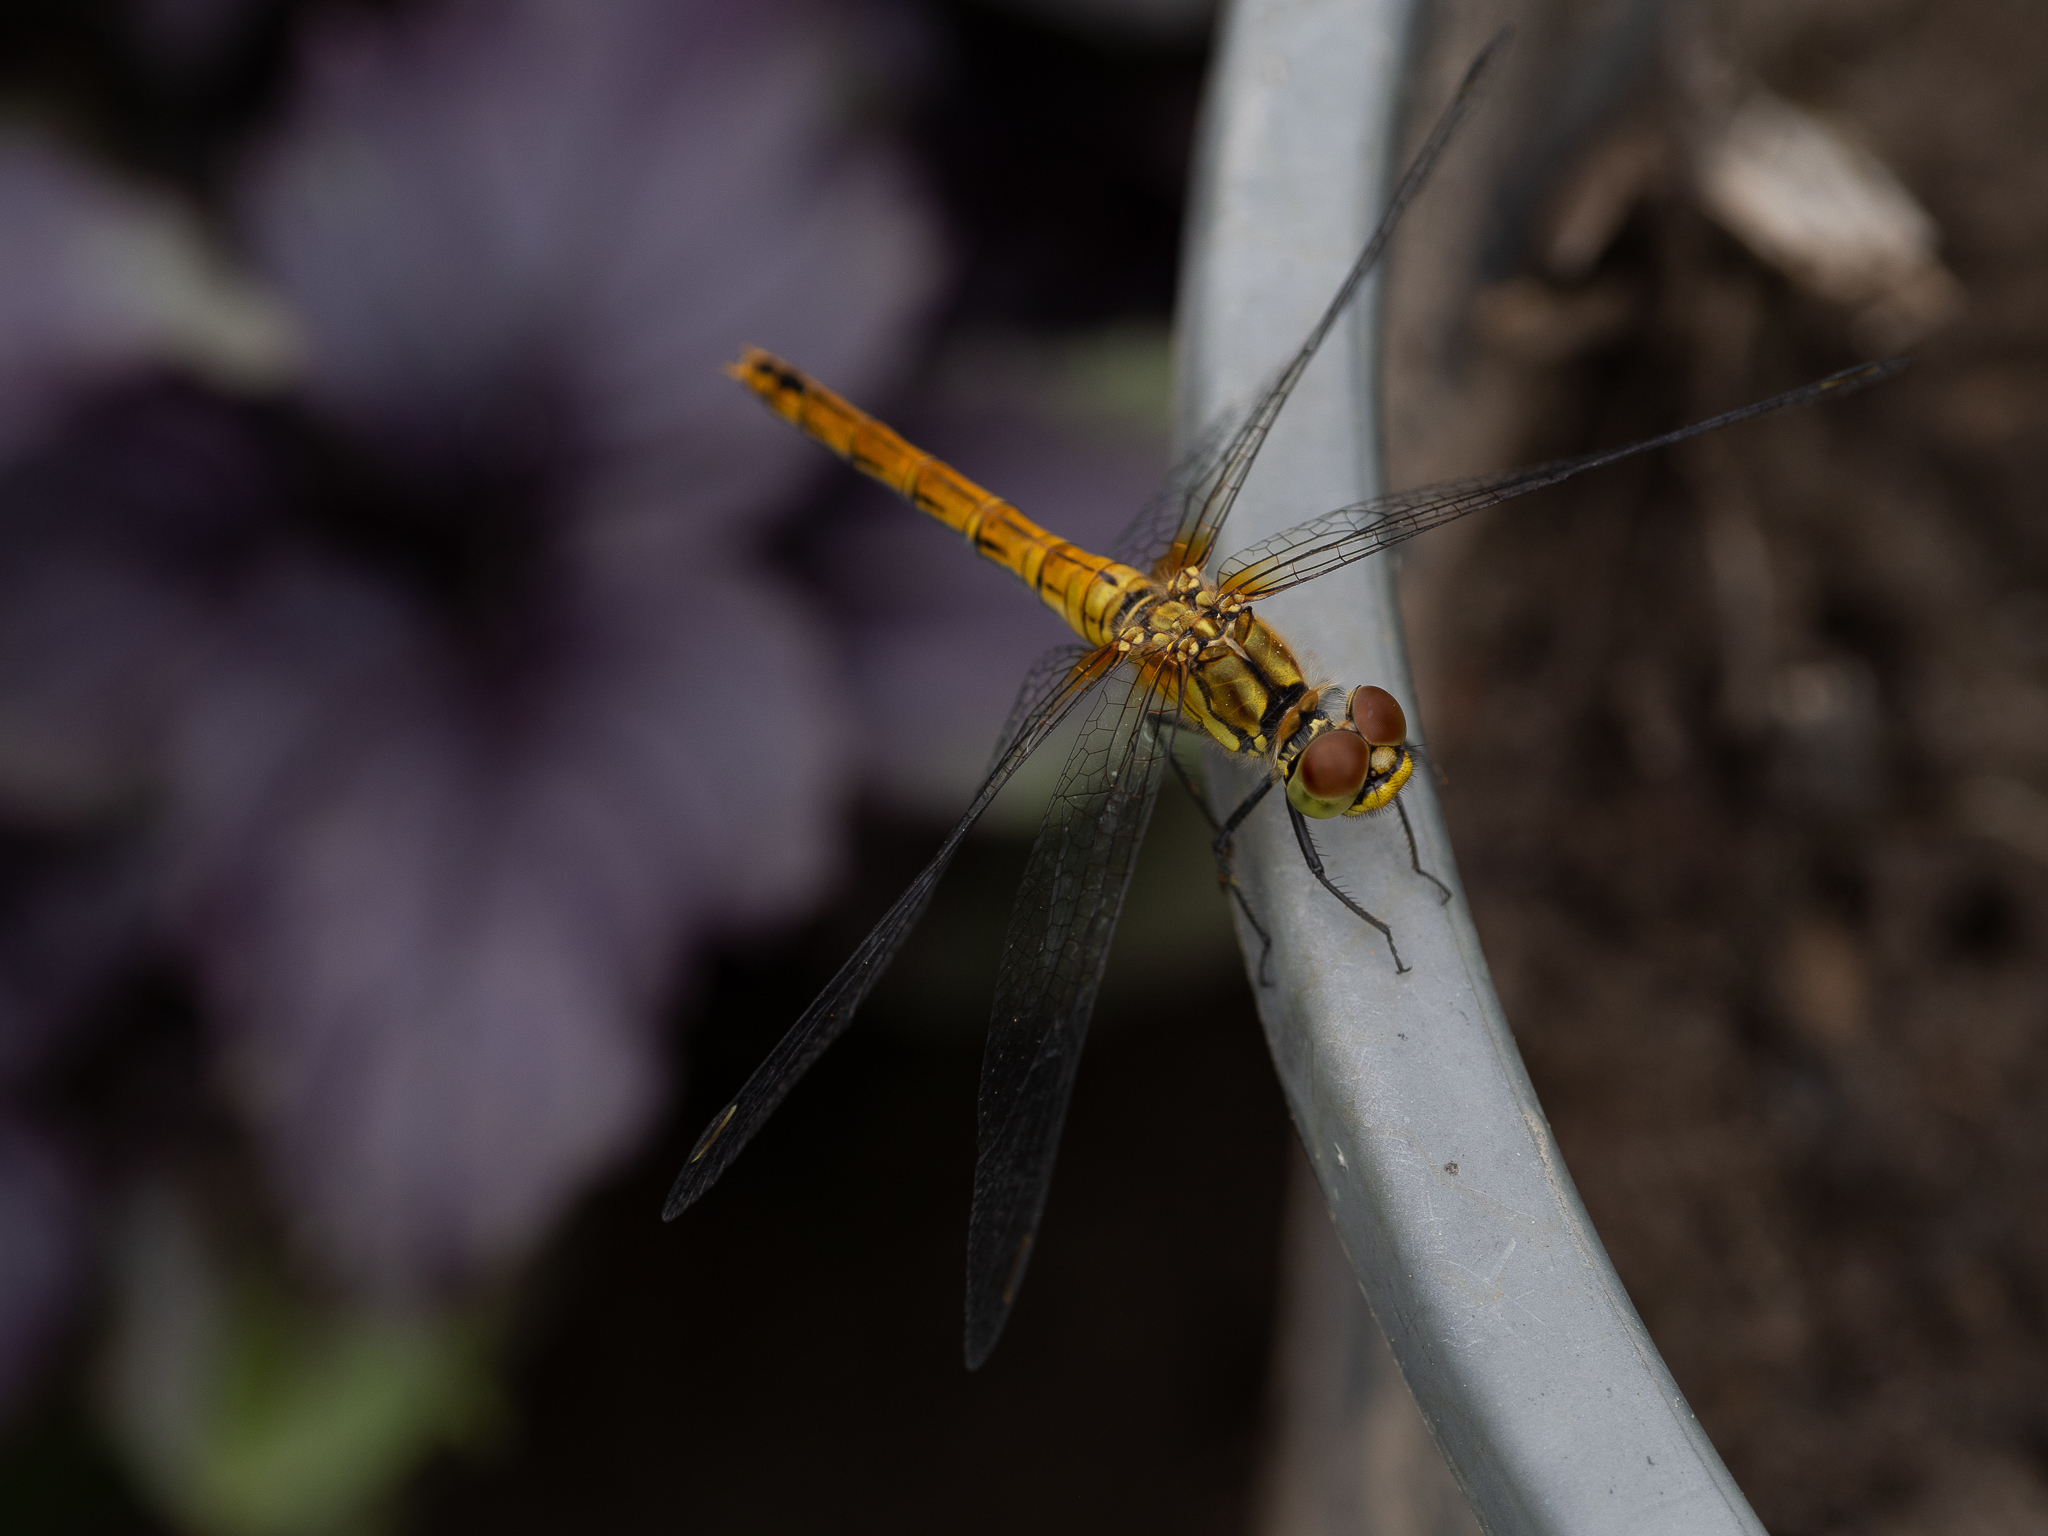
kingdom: Animalia
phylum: Arthropoda
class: Insecta
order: Odonata
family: Libellulidae
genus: Sympetrum
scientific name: Sympetrum sanguineum
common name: Ruddy darter
